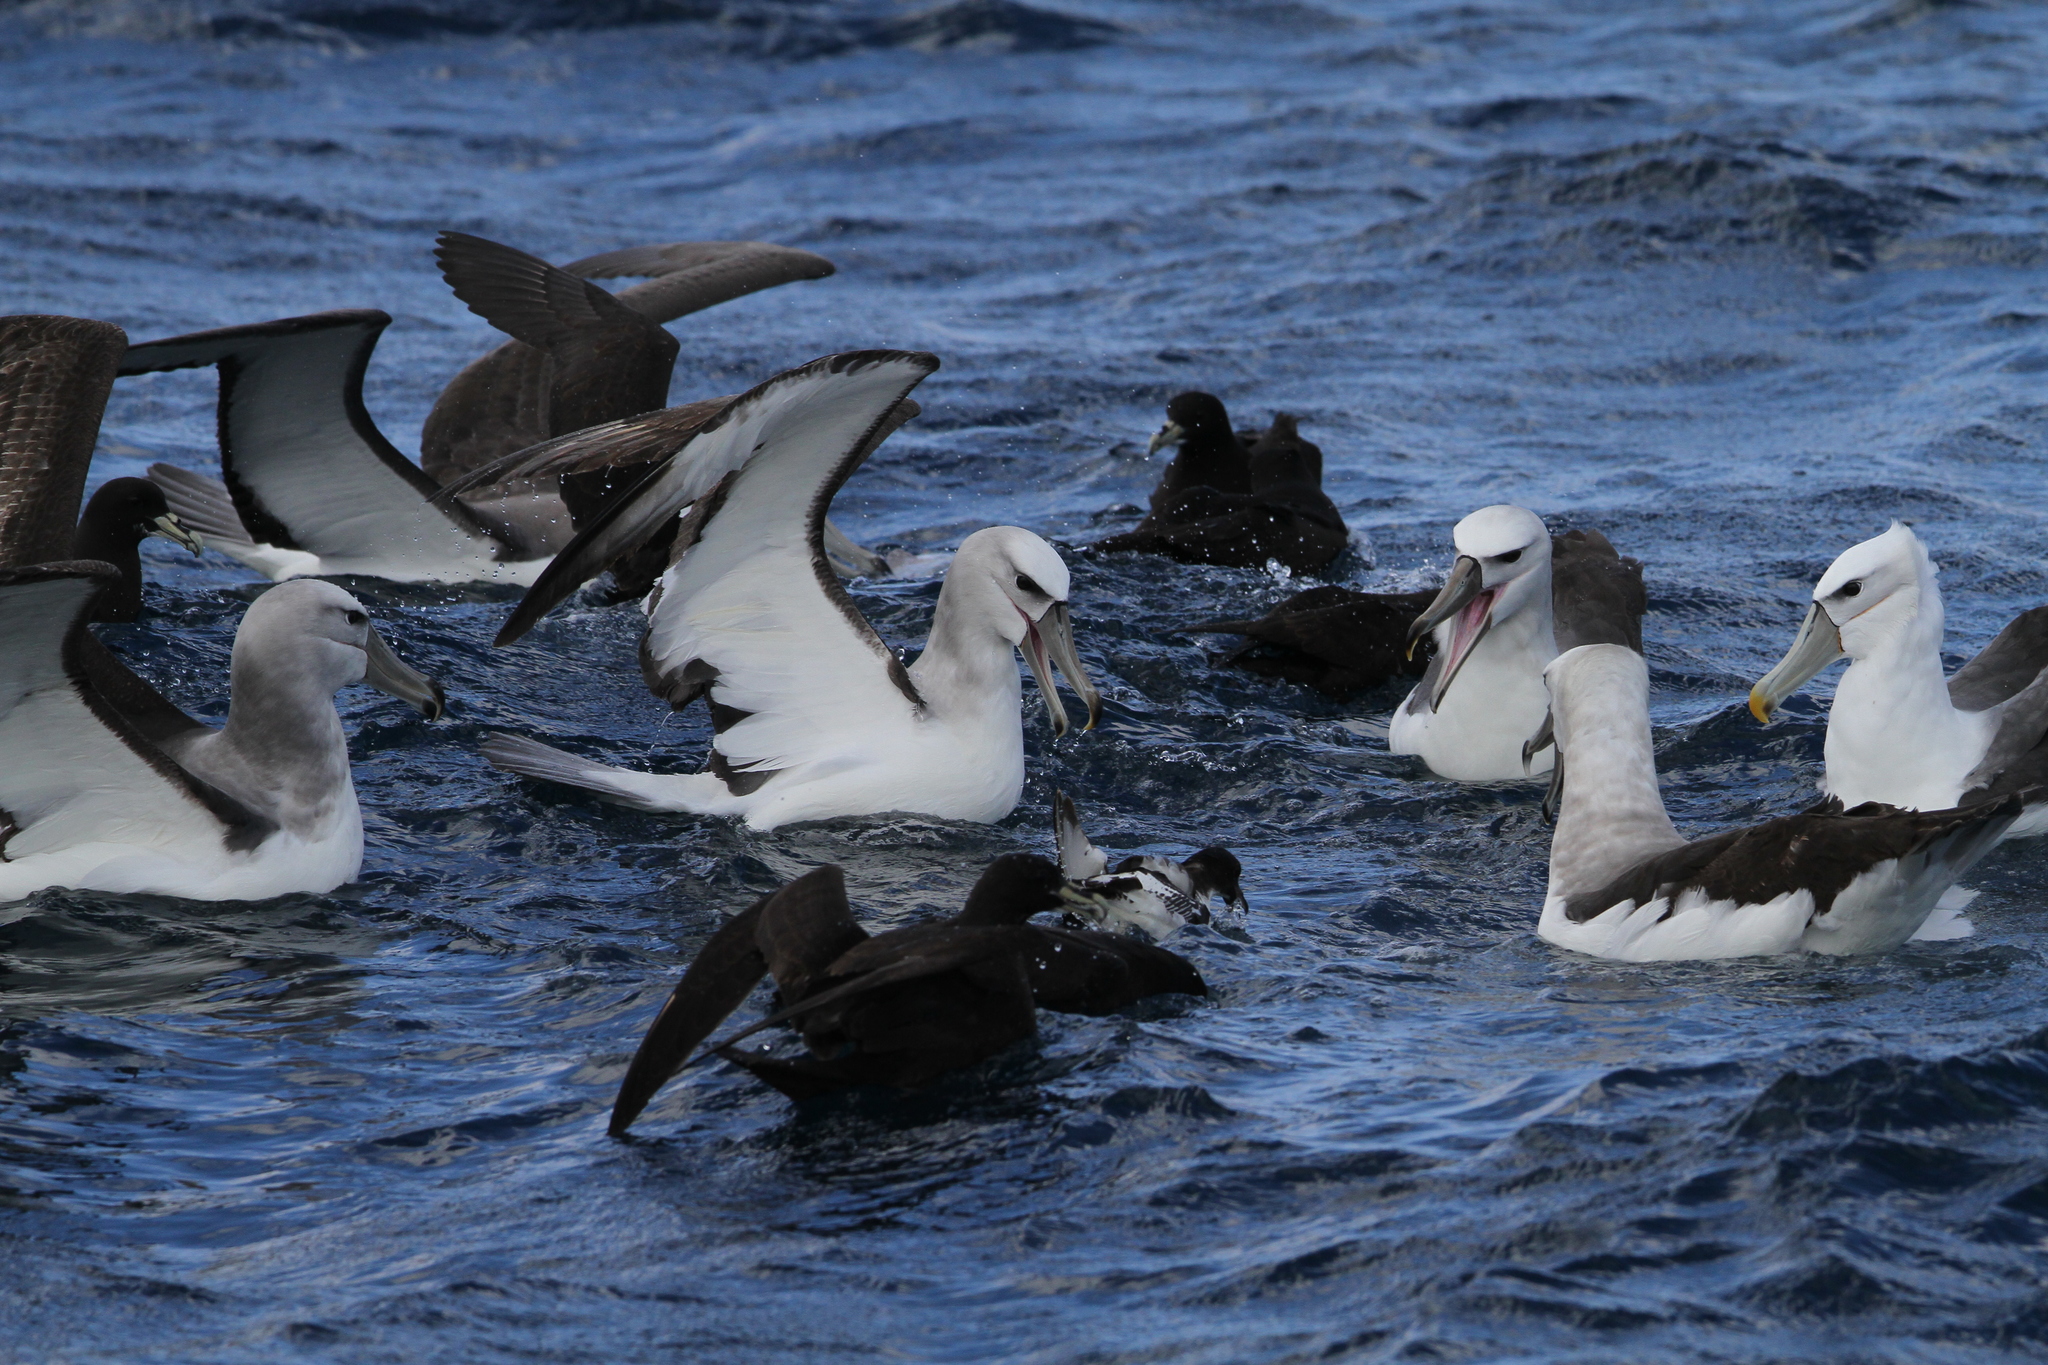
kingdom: Animalia
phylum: Chordata
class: Aves
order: Procellariiformes
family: Diomedeidae
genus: Thalassarche
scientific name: Thalassarche cauta
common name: Shy albatross
